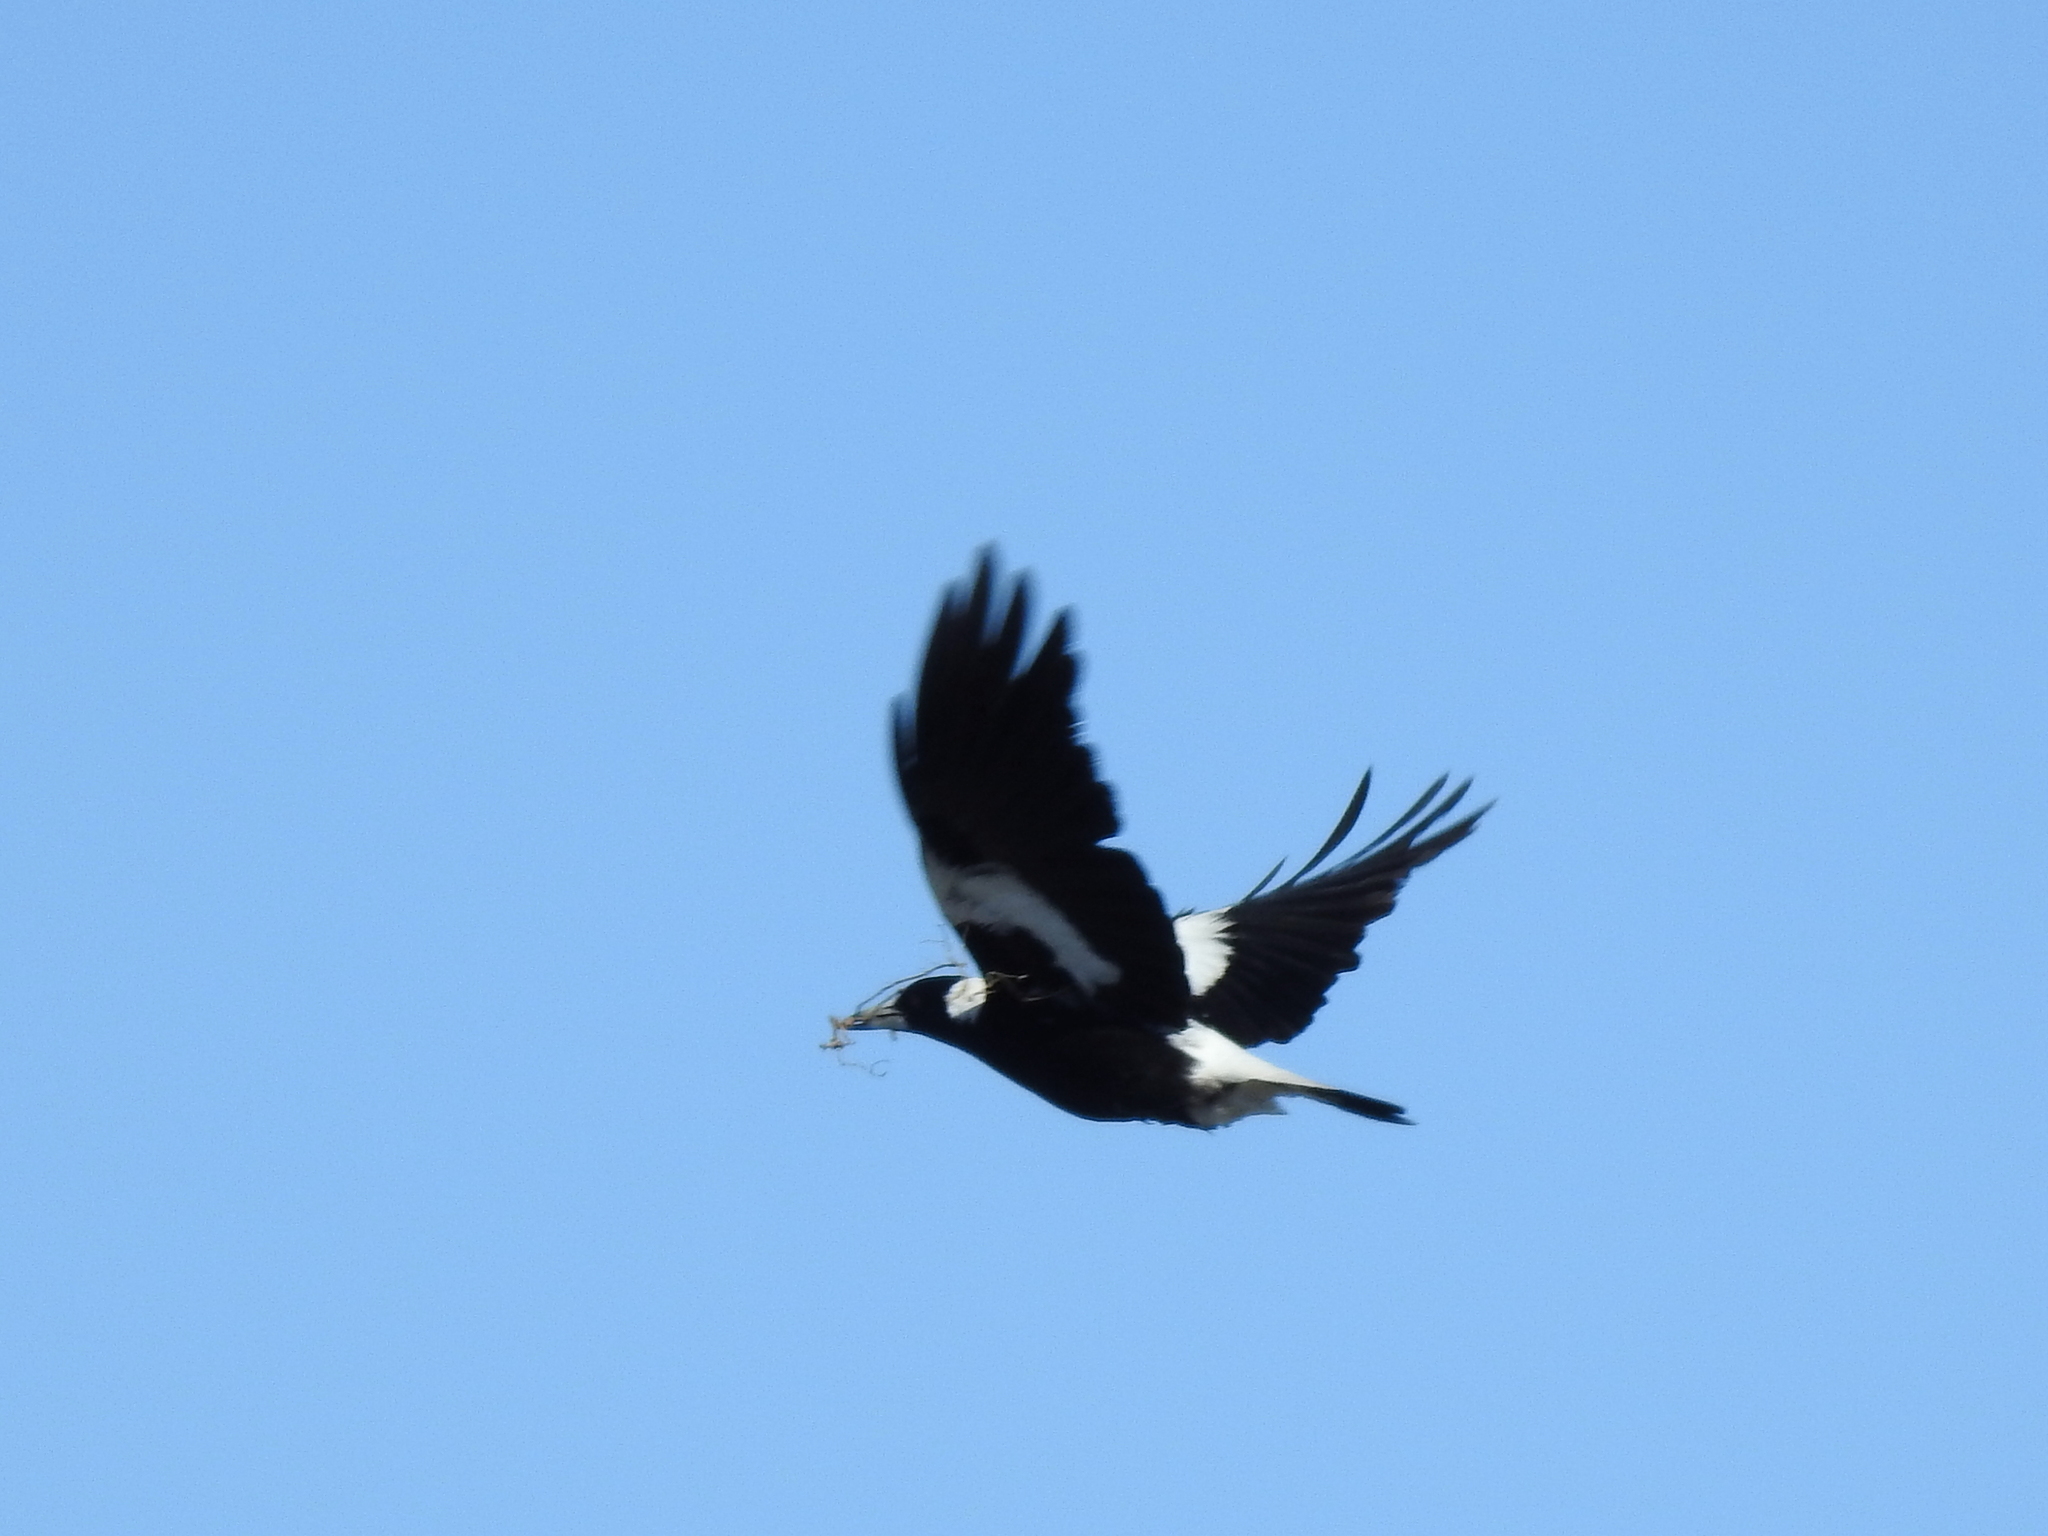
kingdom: Animalia
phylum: Chordata
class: Aves
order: Passeriformes
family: Cracticidae
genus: Gymnorhina
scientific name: Gymnorhina tibicen
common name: Australian magpie
